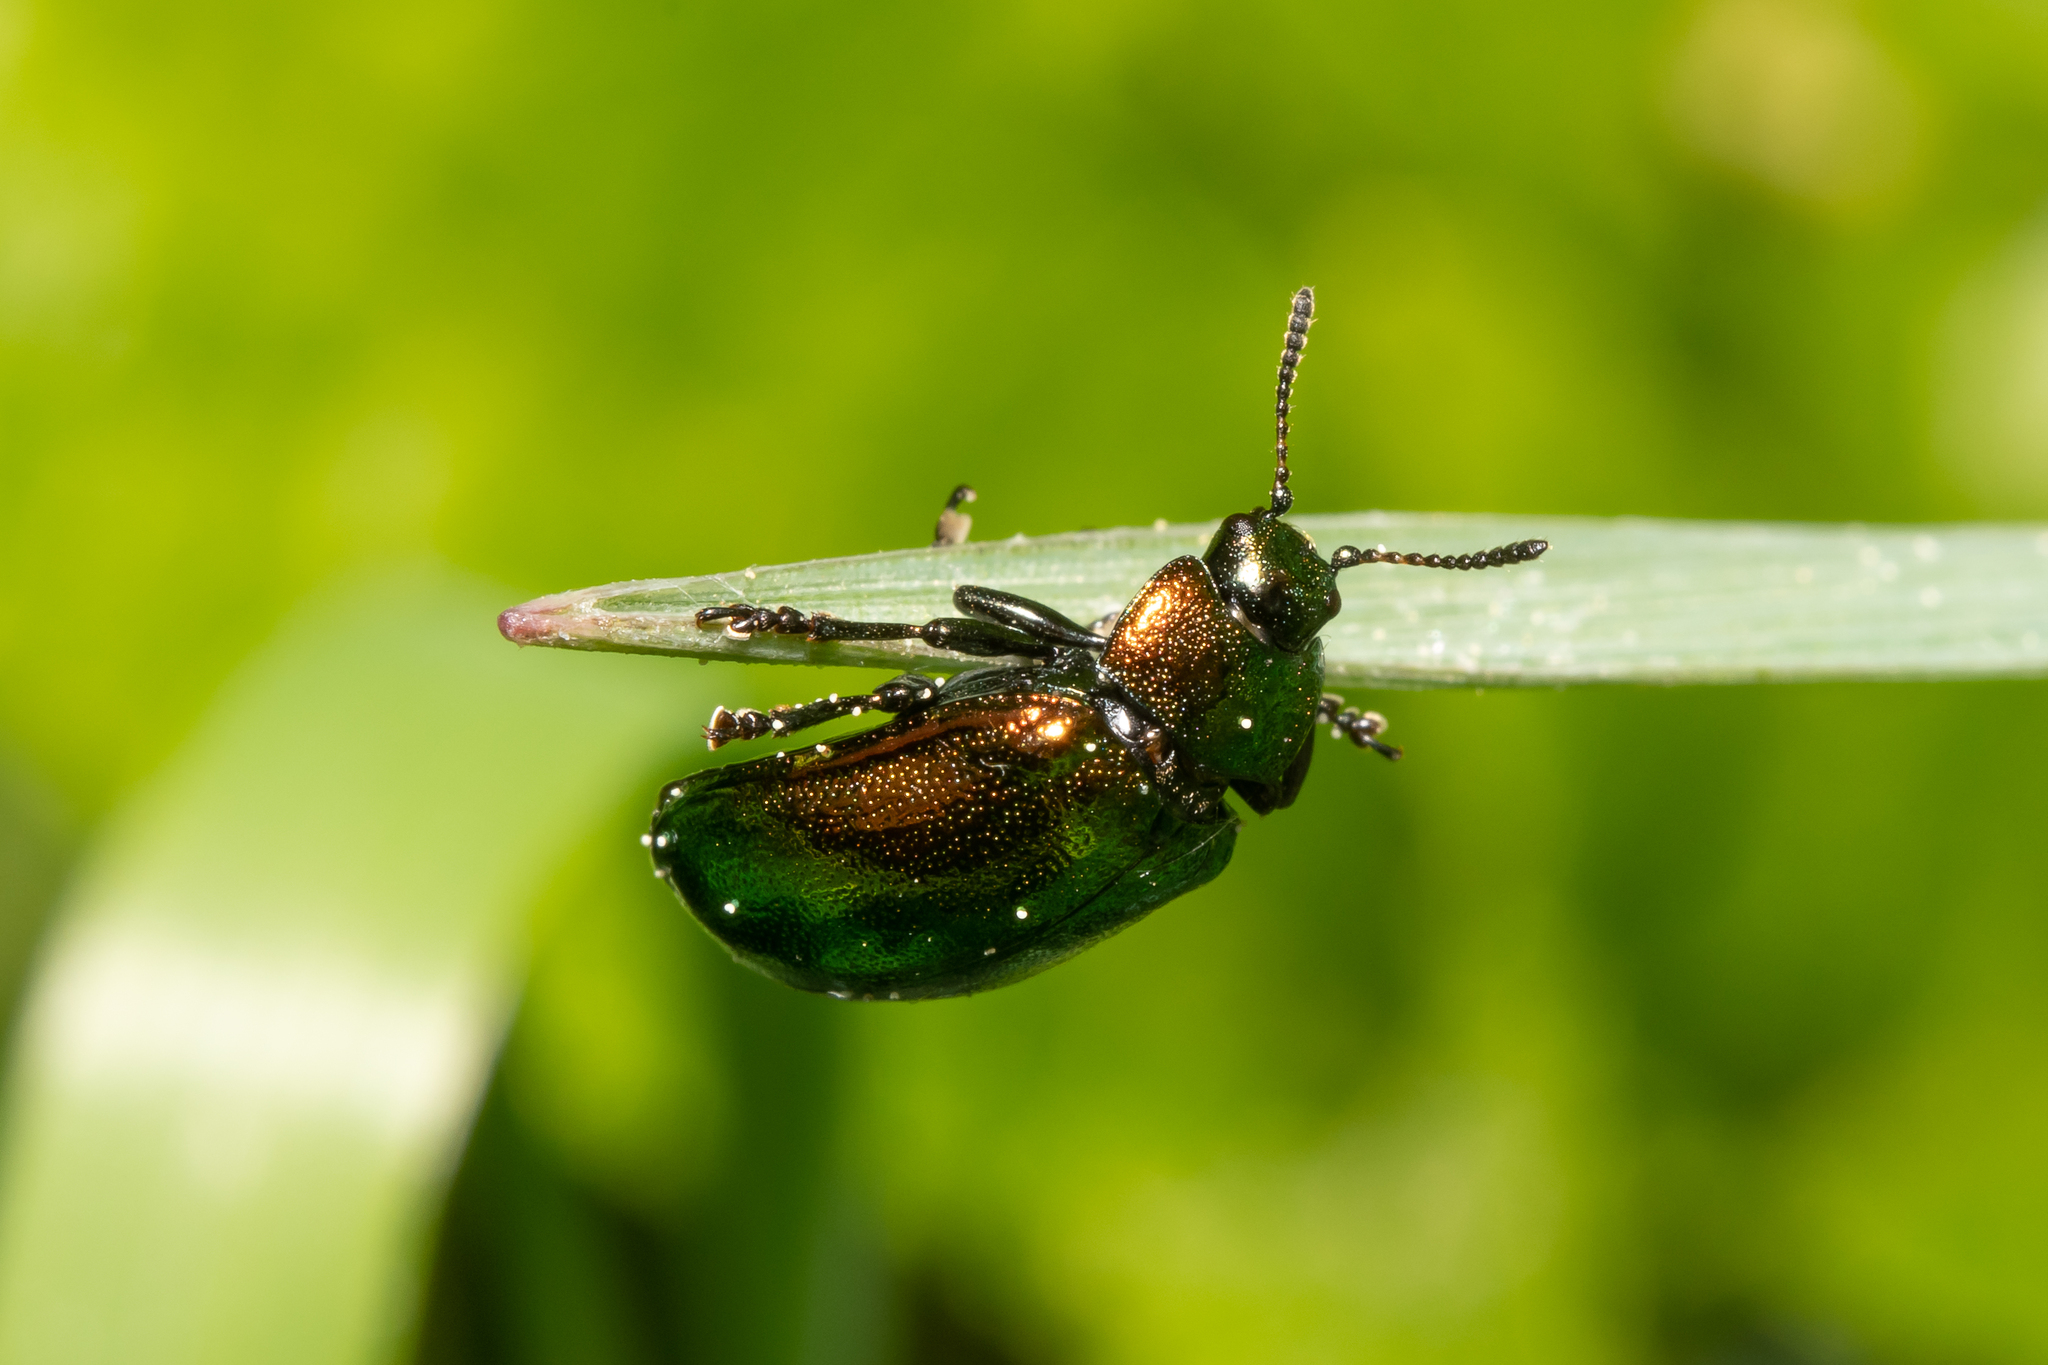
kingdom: Animalia
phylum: Arthropoda
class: Insecta
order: Coleoptera
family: Chrysomelidae
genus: Plagiosterna
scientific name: Plagiosterna aenea
